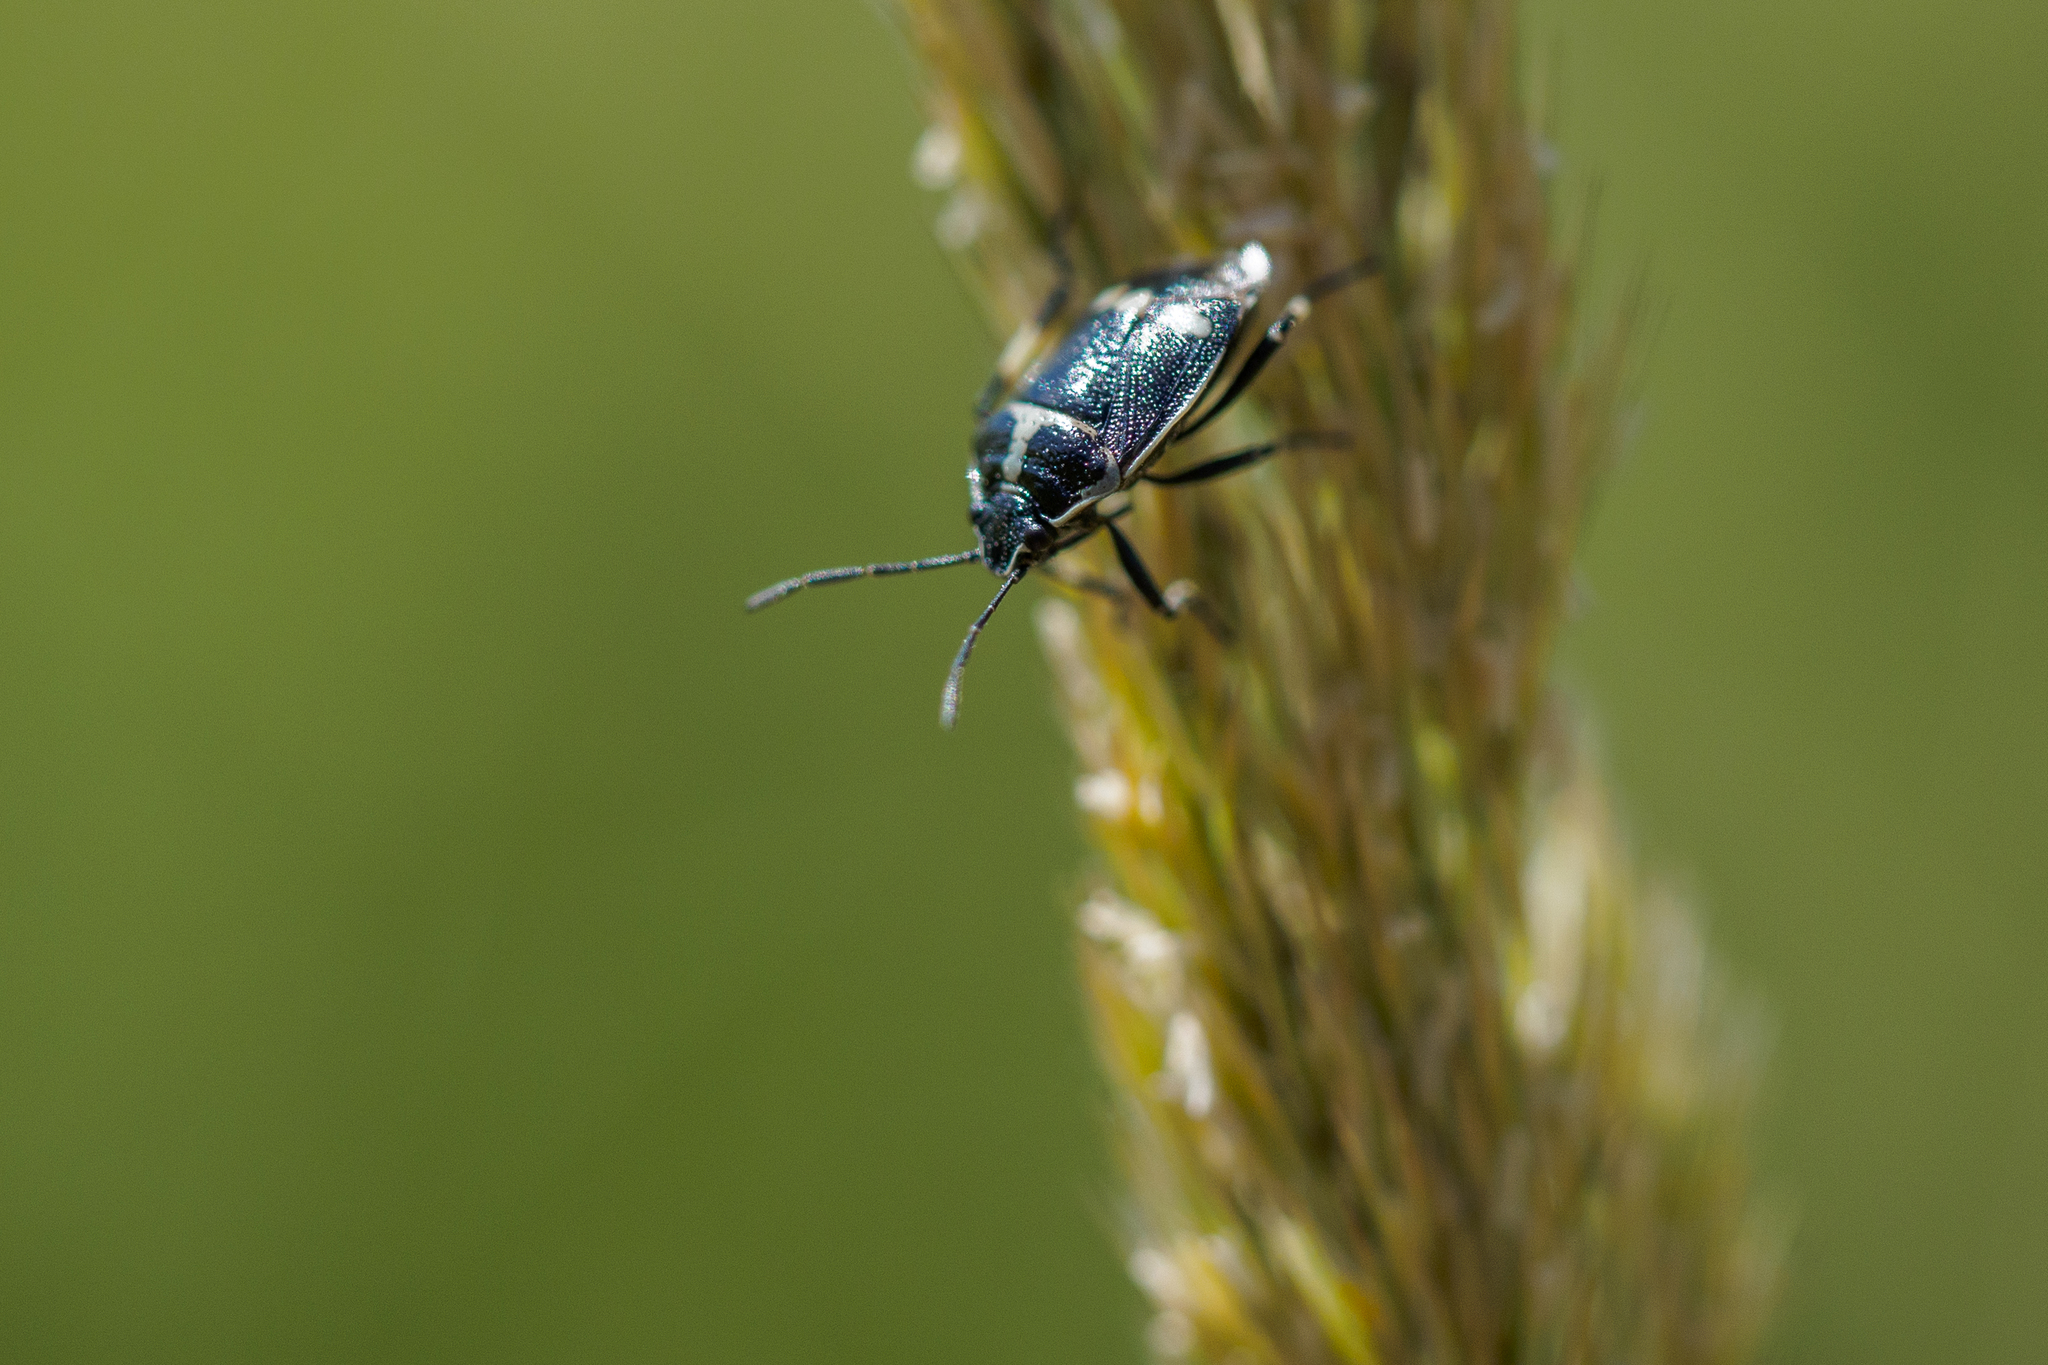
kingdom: Animalia
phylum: Arthropoda
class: Insecta
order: Hemiptera
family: Pentatomidae
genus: Eurydema
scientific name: Eurydema oleracea
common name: Cabbage bug
